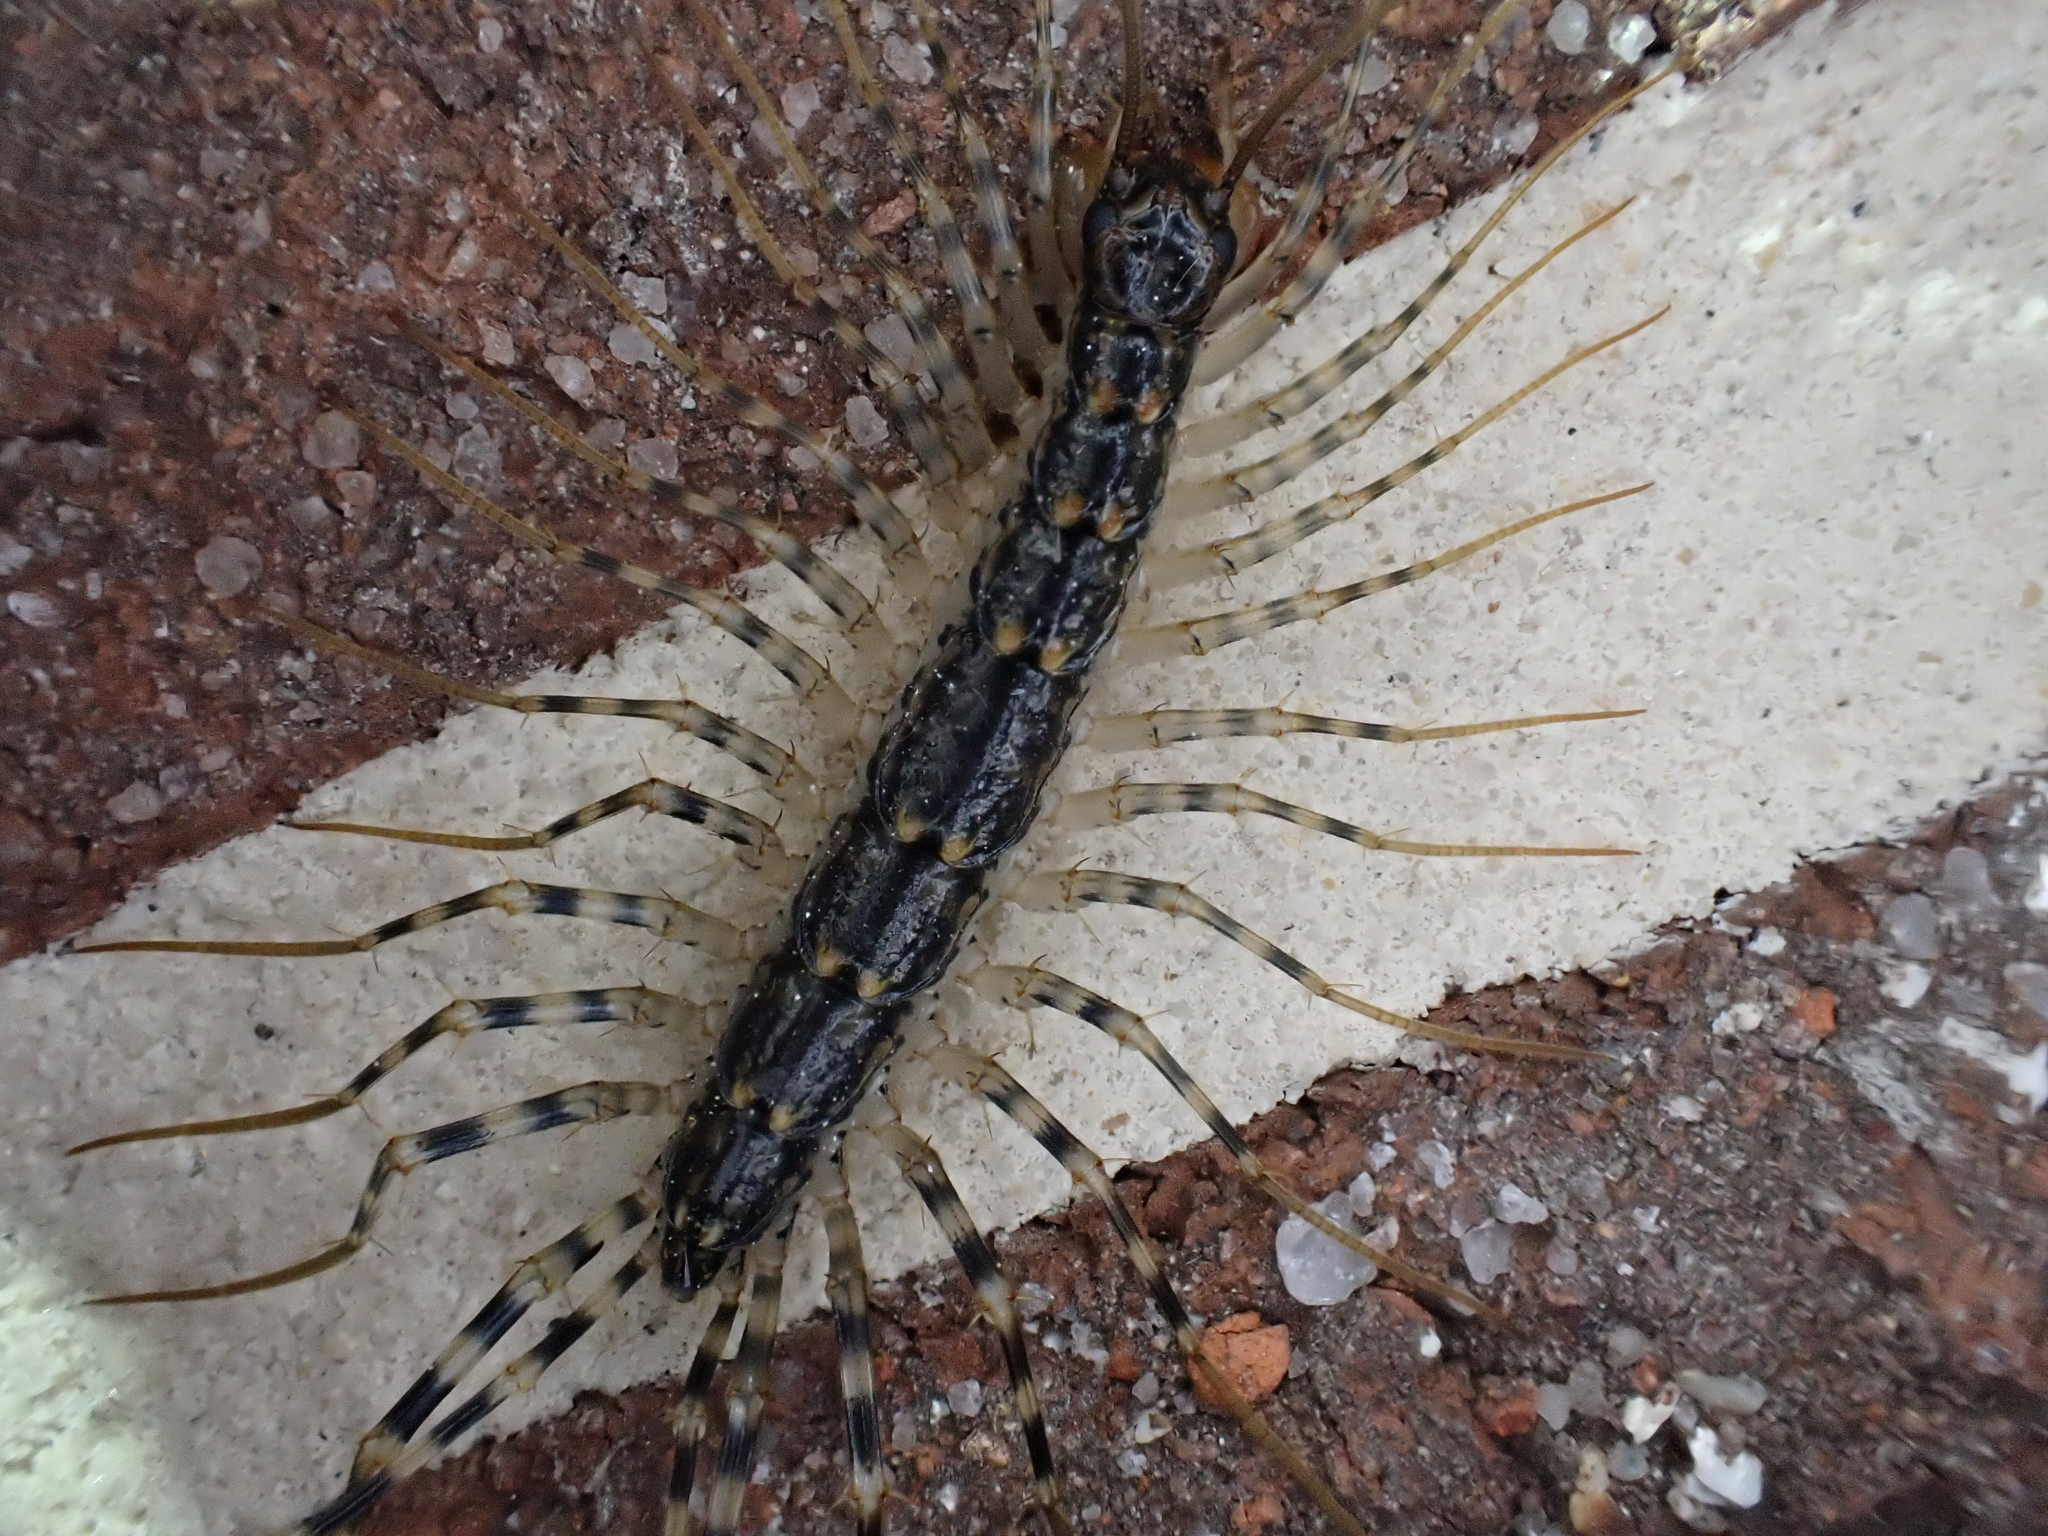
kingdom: Animalia
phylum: Arthropoda
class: Chilopoda
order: Scutigeromorpha
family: Scutigeridae
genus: Scutigera
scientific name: Scutigera coleoptrata
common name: House centipede
